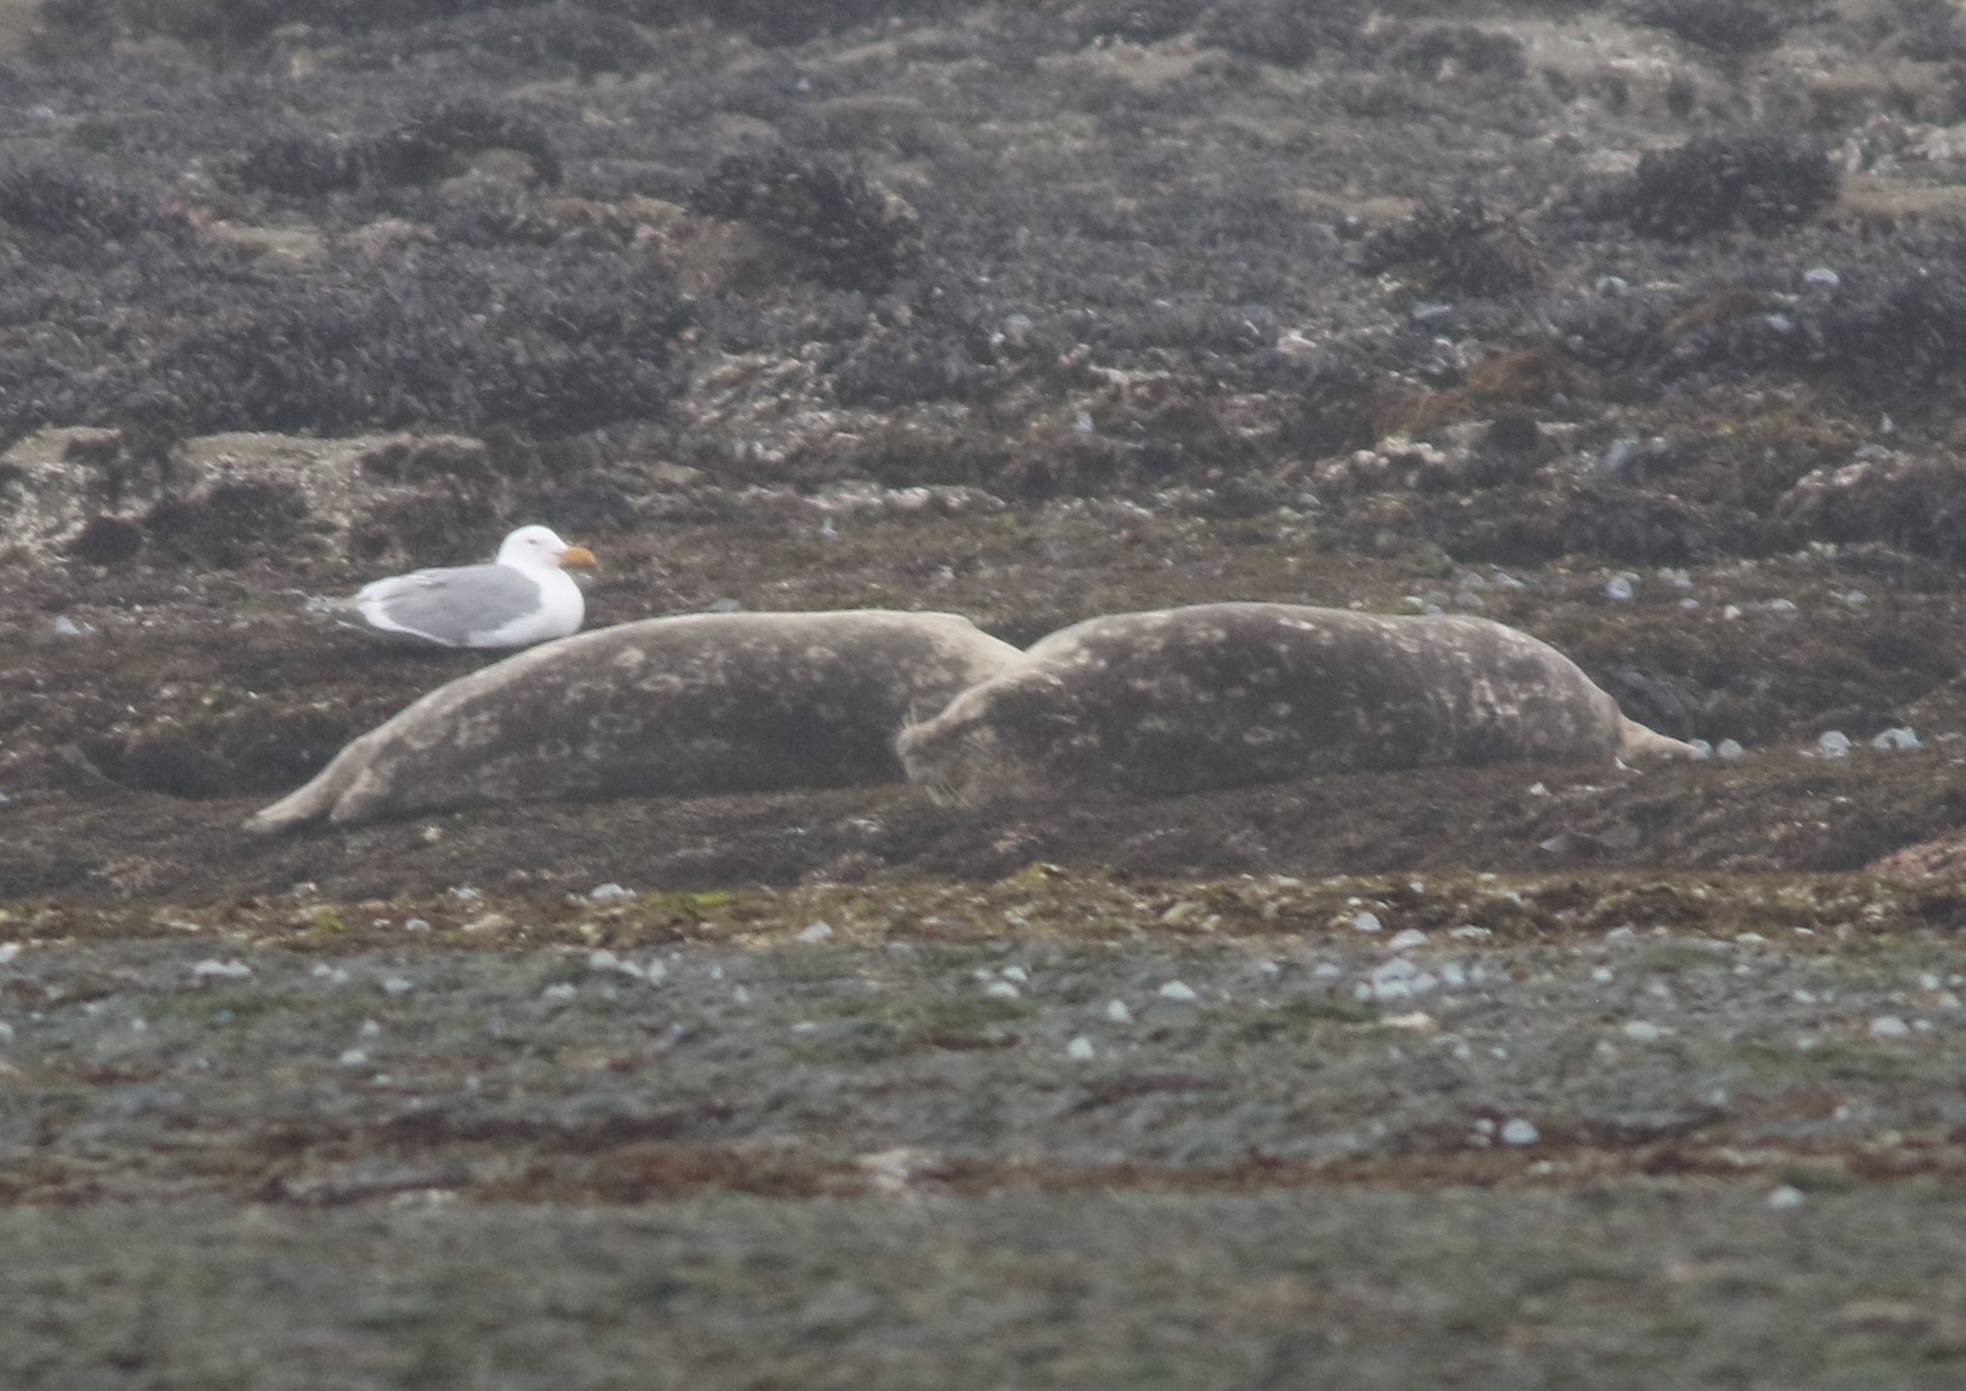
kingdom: Animalia
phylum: Chordata
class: Mammalia
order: Carnivora
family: Phocidae
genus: Phoca
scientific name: Phoca vitulina
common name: Harbor seal
